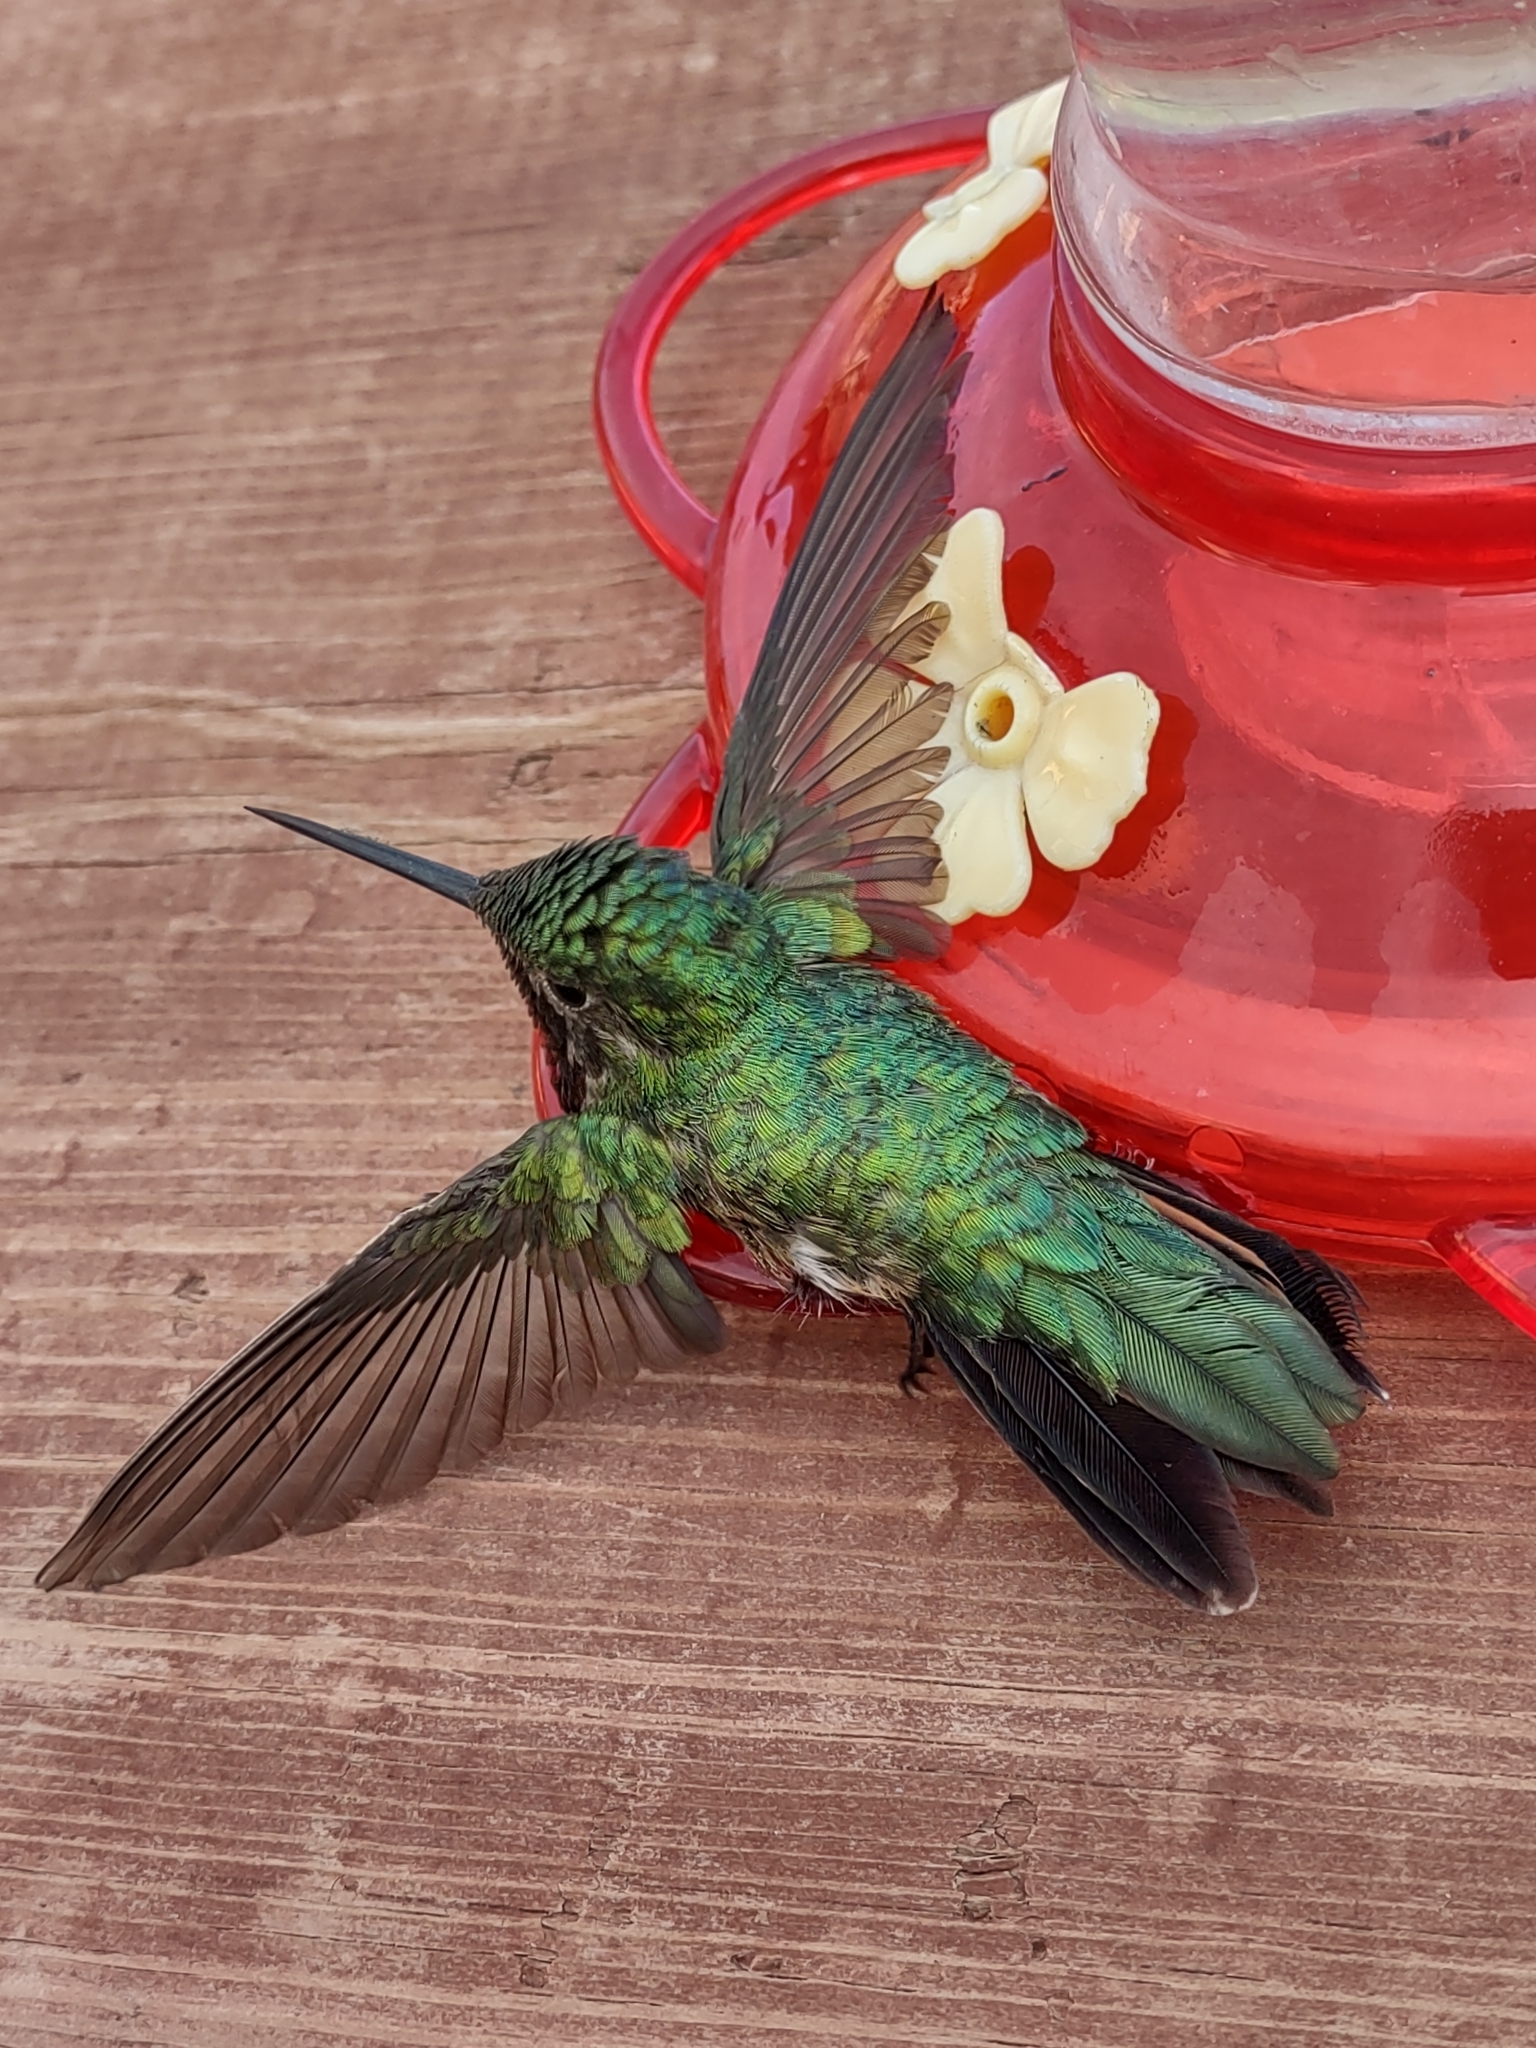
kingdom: Animalia
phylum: Chordata
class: Aves
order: Apodiformes
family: Trochilidae
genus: Selasphorus
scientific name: Selasphorus platycercus
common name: Broad-tailed hummingbird
